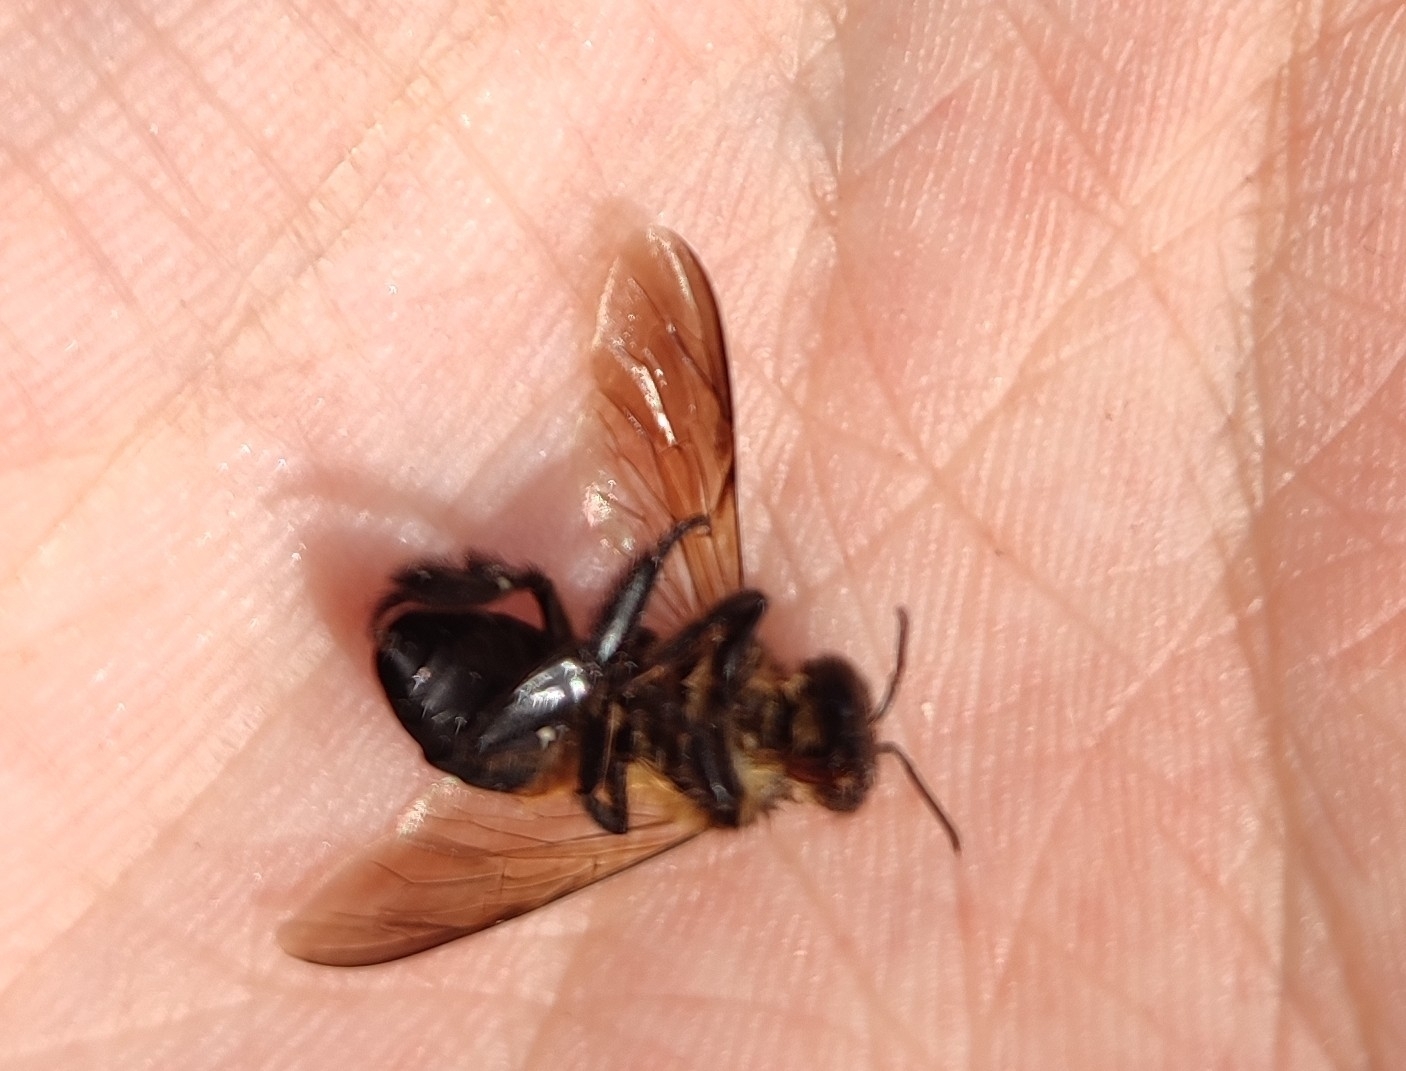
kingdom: Animalia
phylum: Arthropoda
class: Insecta
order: Hymenoptera
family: Apidae
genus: Apis
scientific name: Apis dorsata
